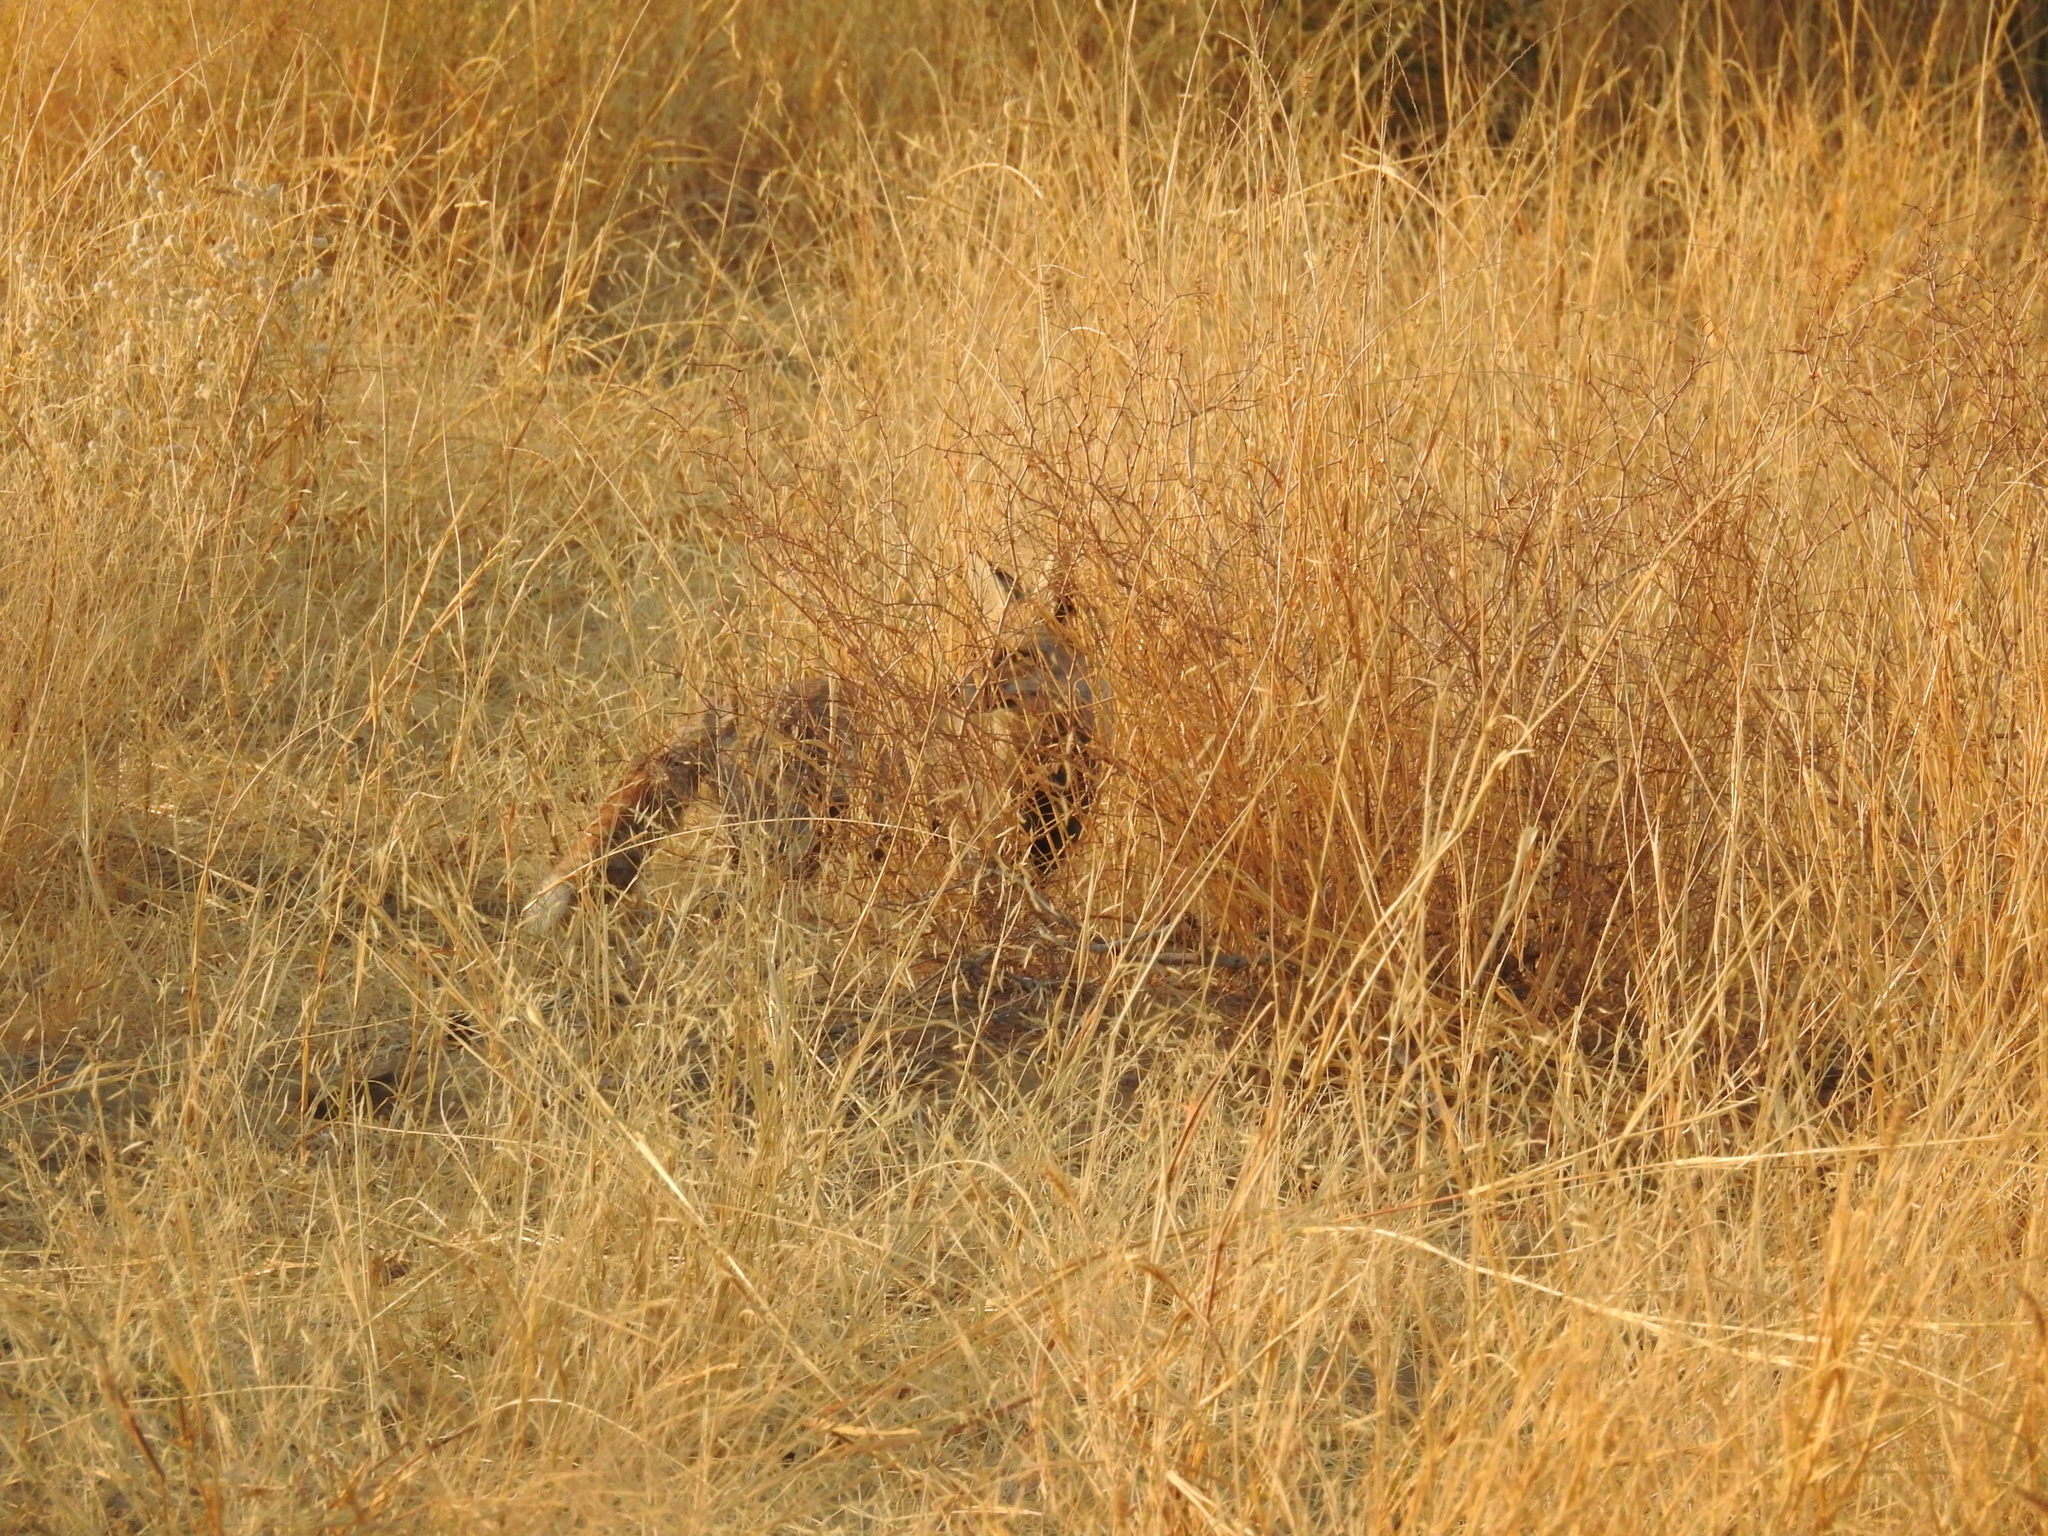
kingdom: Animalia
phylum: Chordata
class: Mammalia
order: Carnivora
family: Canidae
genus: Vulpes
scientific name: Vulpes vulpes
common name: Red fox
